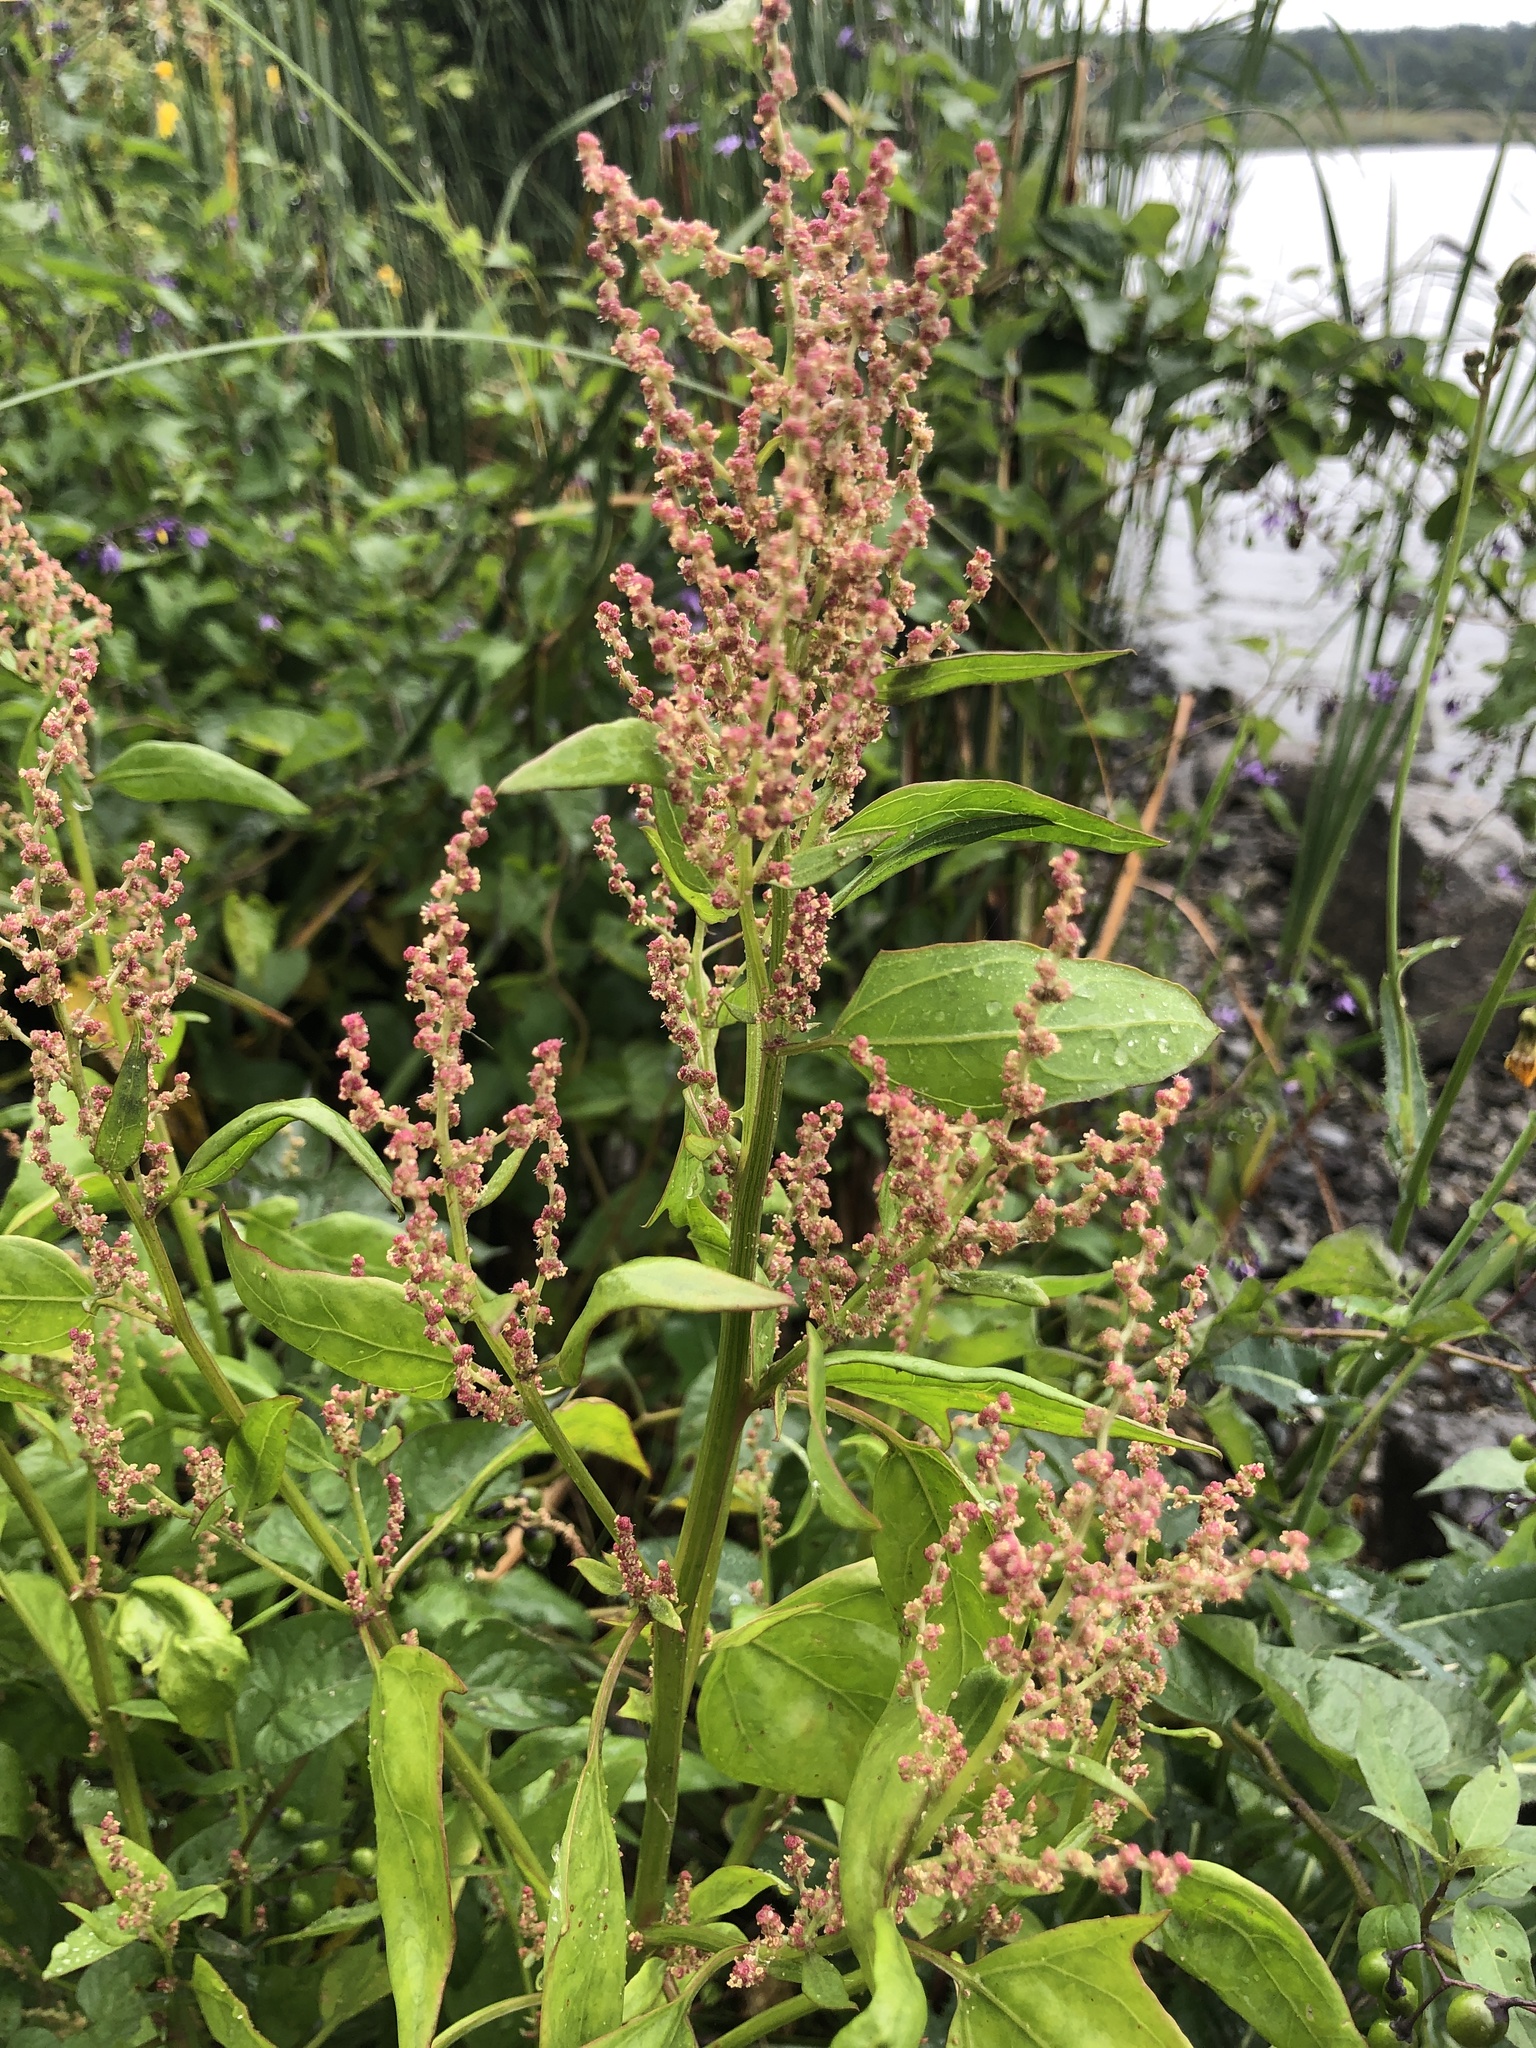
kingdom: Plantae
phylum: Tracheophyta
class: Magnoliopsida
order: Caryophyllales
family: Amaranthaceae
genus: Atriplex
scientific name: Atriplex prostrata
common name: Spear-leaved orache
